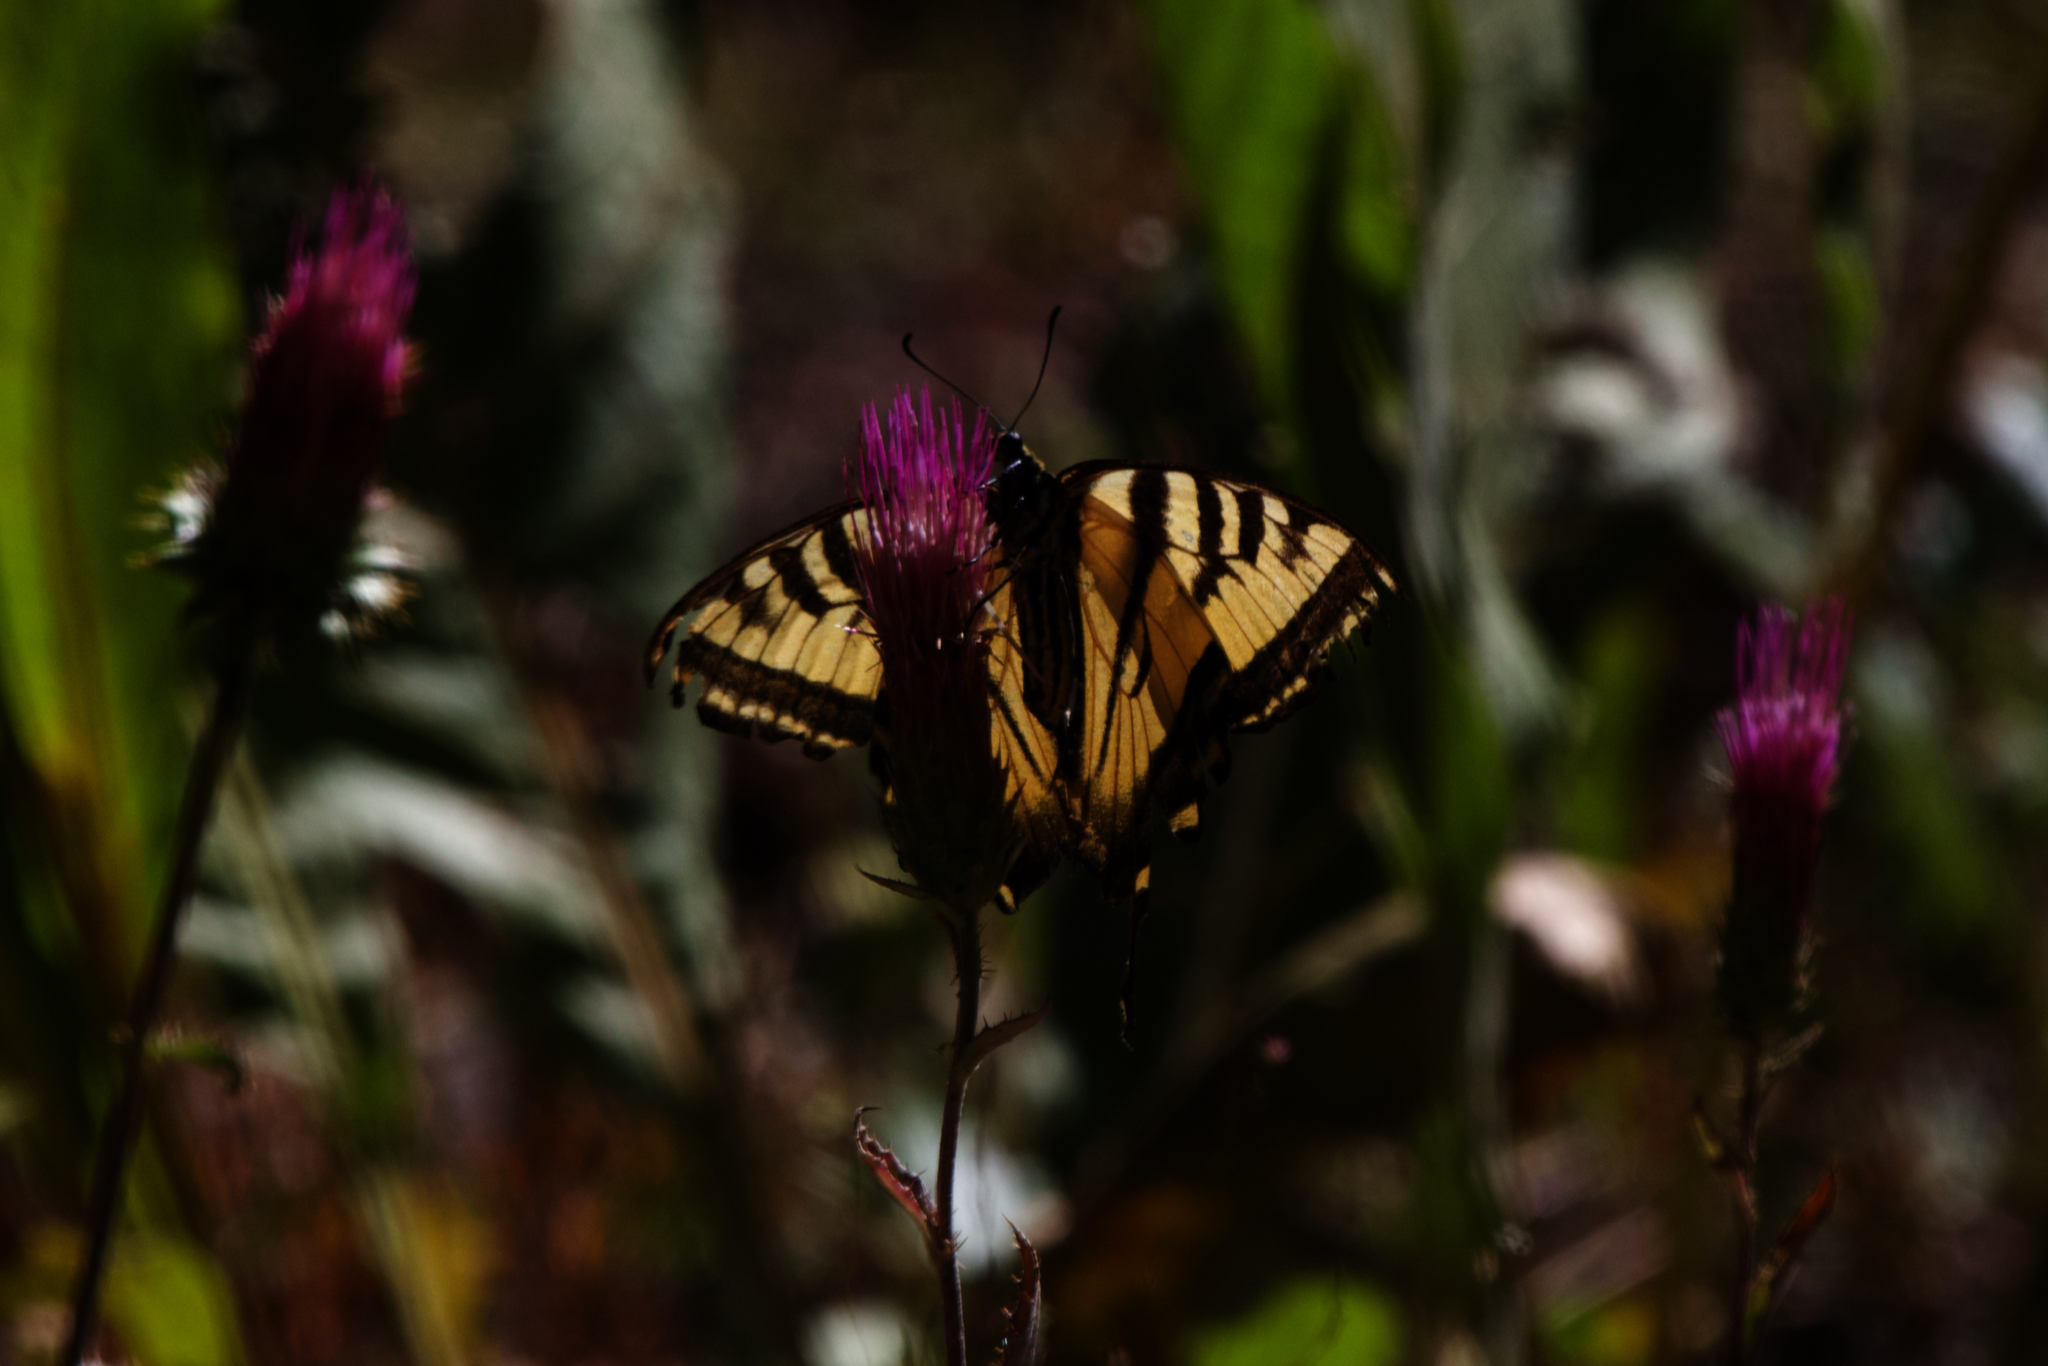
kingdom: Animalia
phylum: Arthropoda
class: Insecta
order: Lepidoptera
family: Papilionidae
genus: Papilio
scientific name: Papilio rutulus
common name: Western tiger swallowtail
